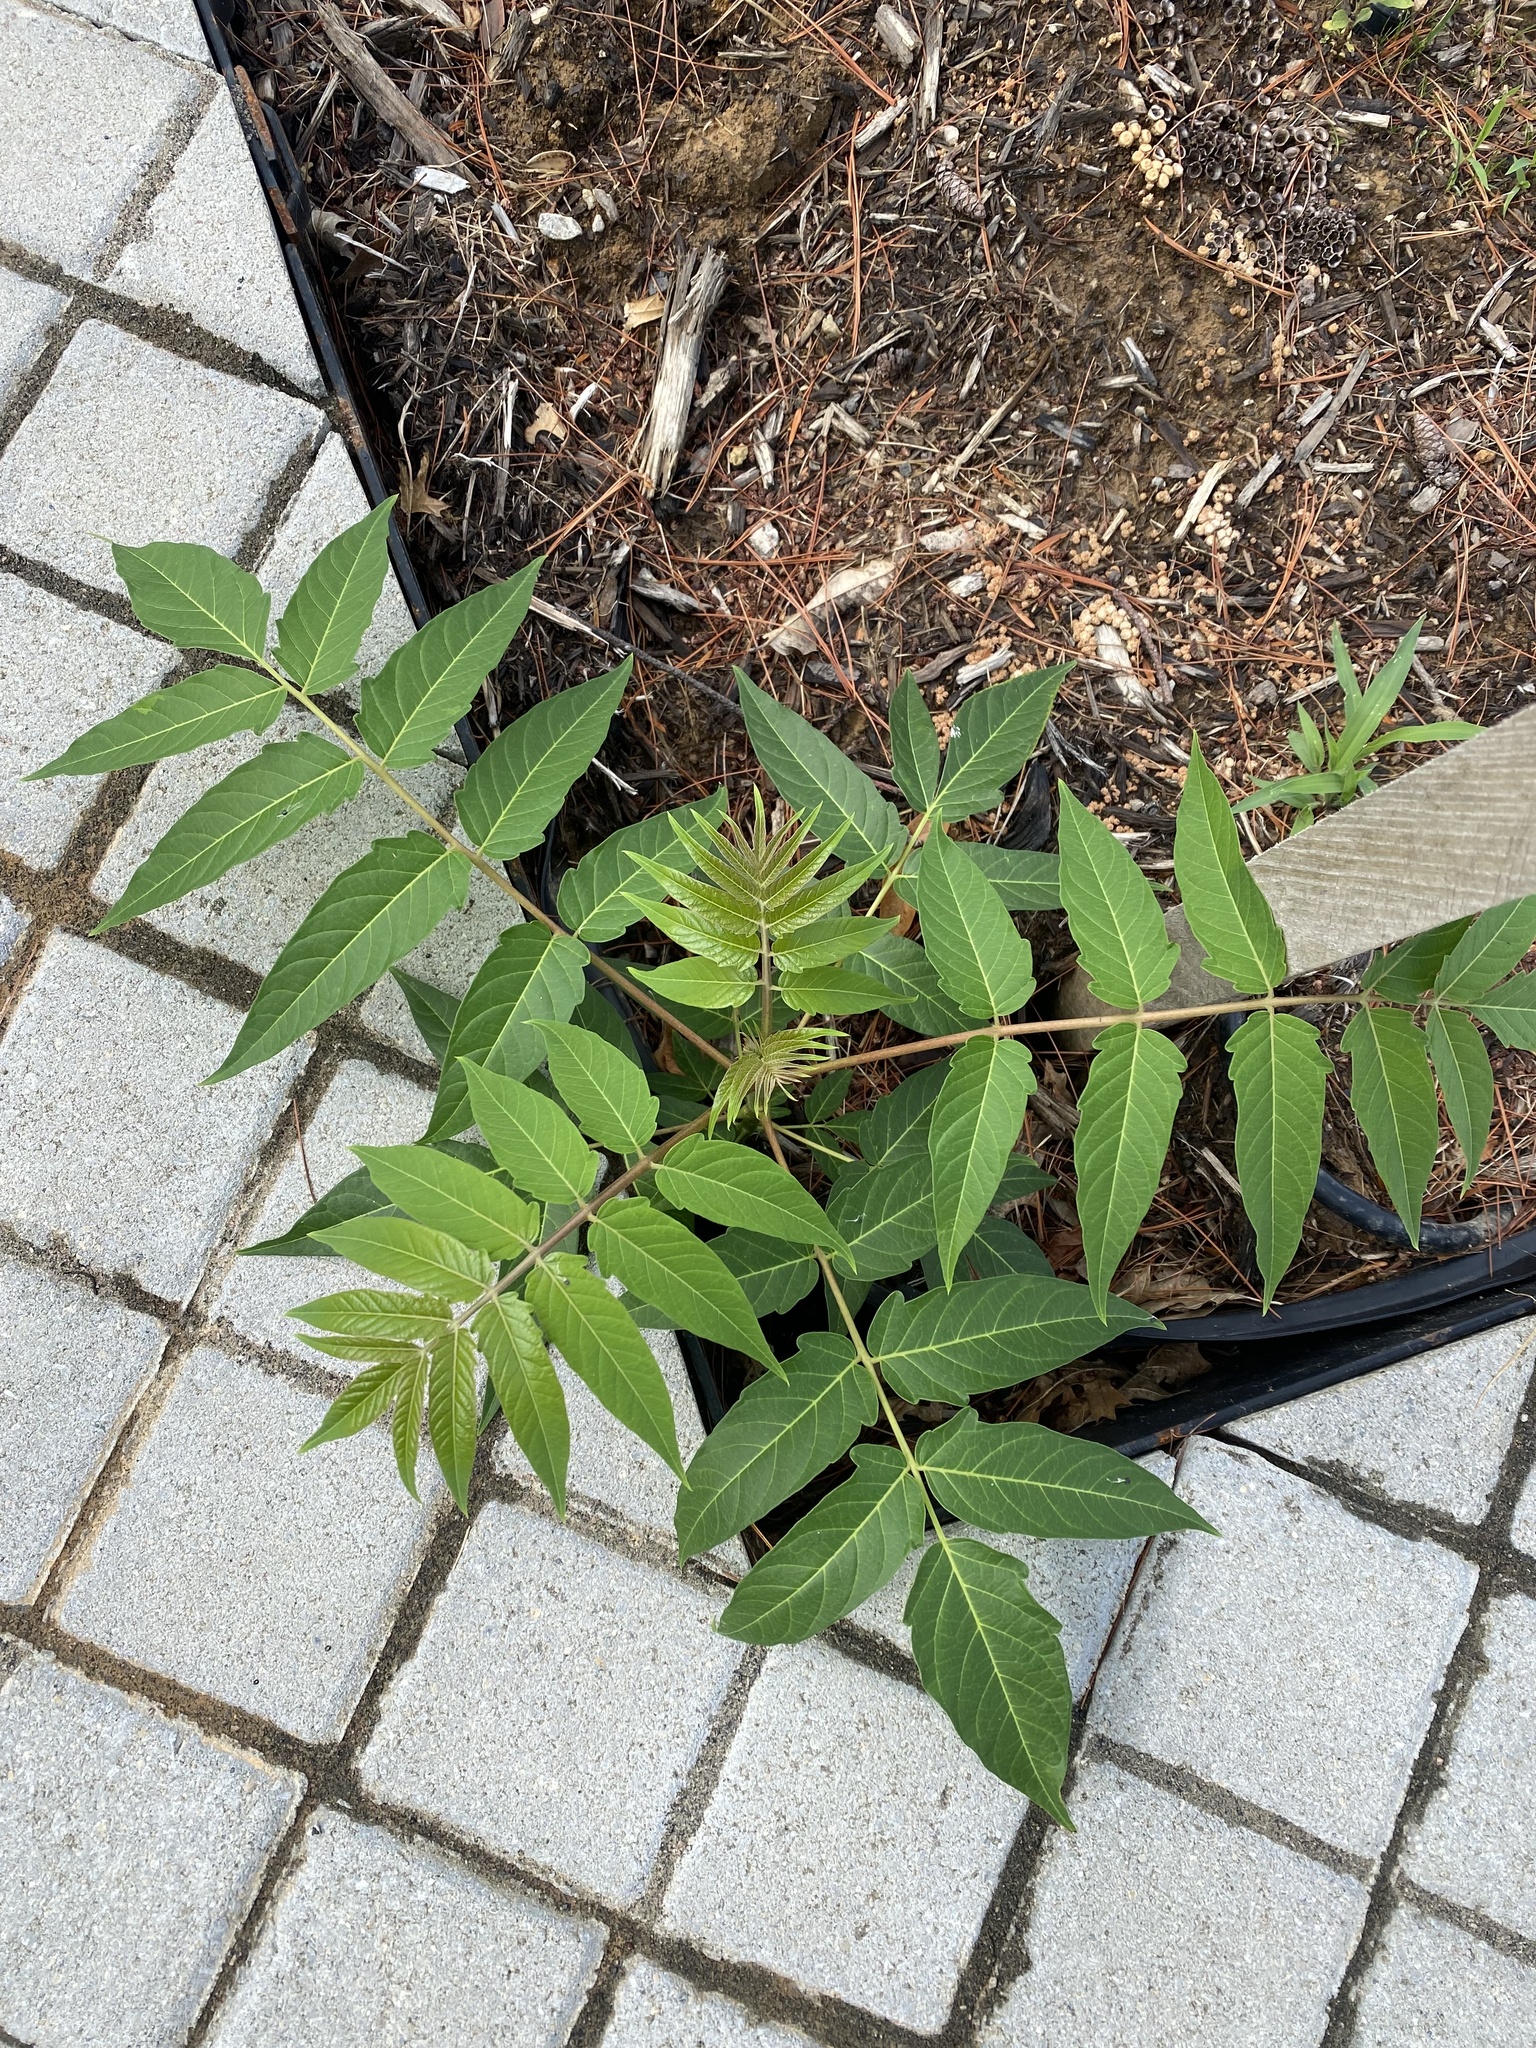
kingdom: Plantae
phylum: Tracheophyta
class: Magnoliopsida
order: Sapindales
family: Simaroubaceae
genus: Ailanthus
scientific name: Ailanthus altissima
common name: Tree-of-heaven
